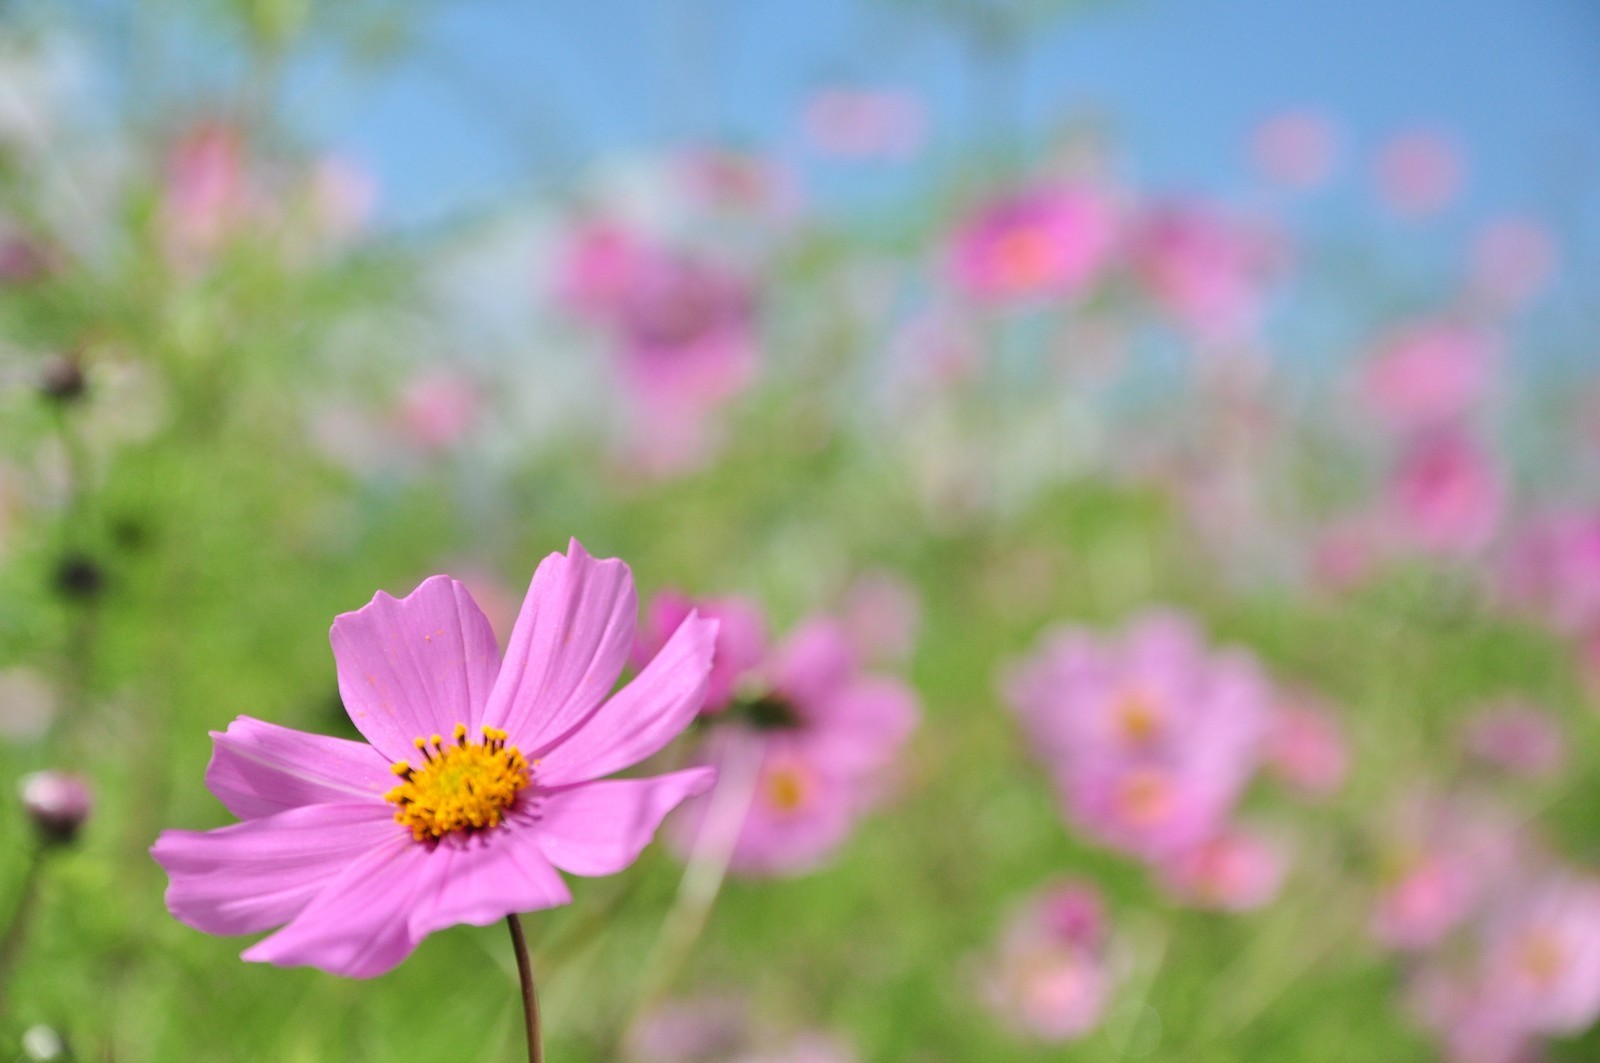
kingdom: Plantae
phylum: Tracheophyta
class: Magnoliopsida
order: Asterales
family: Asteraceae
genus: Cosmos
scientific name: Cosmos bipinnatus
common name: Garden cosmos
